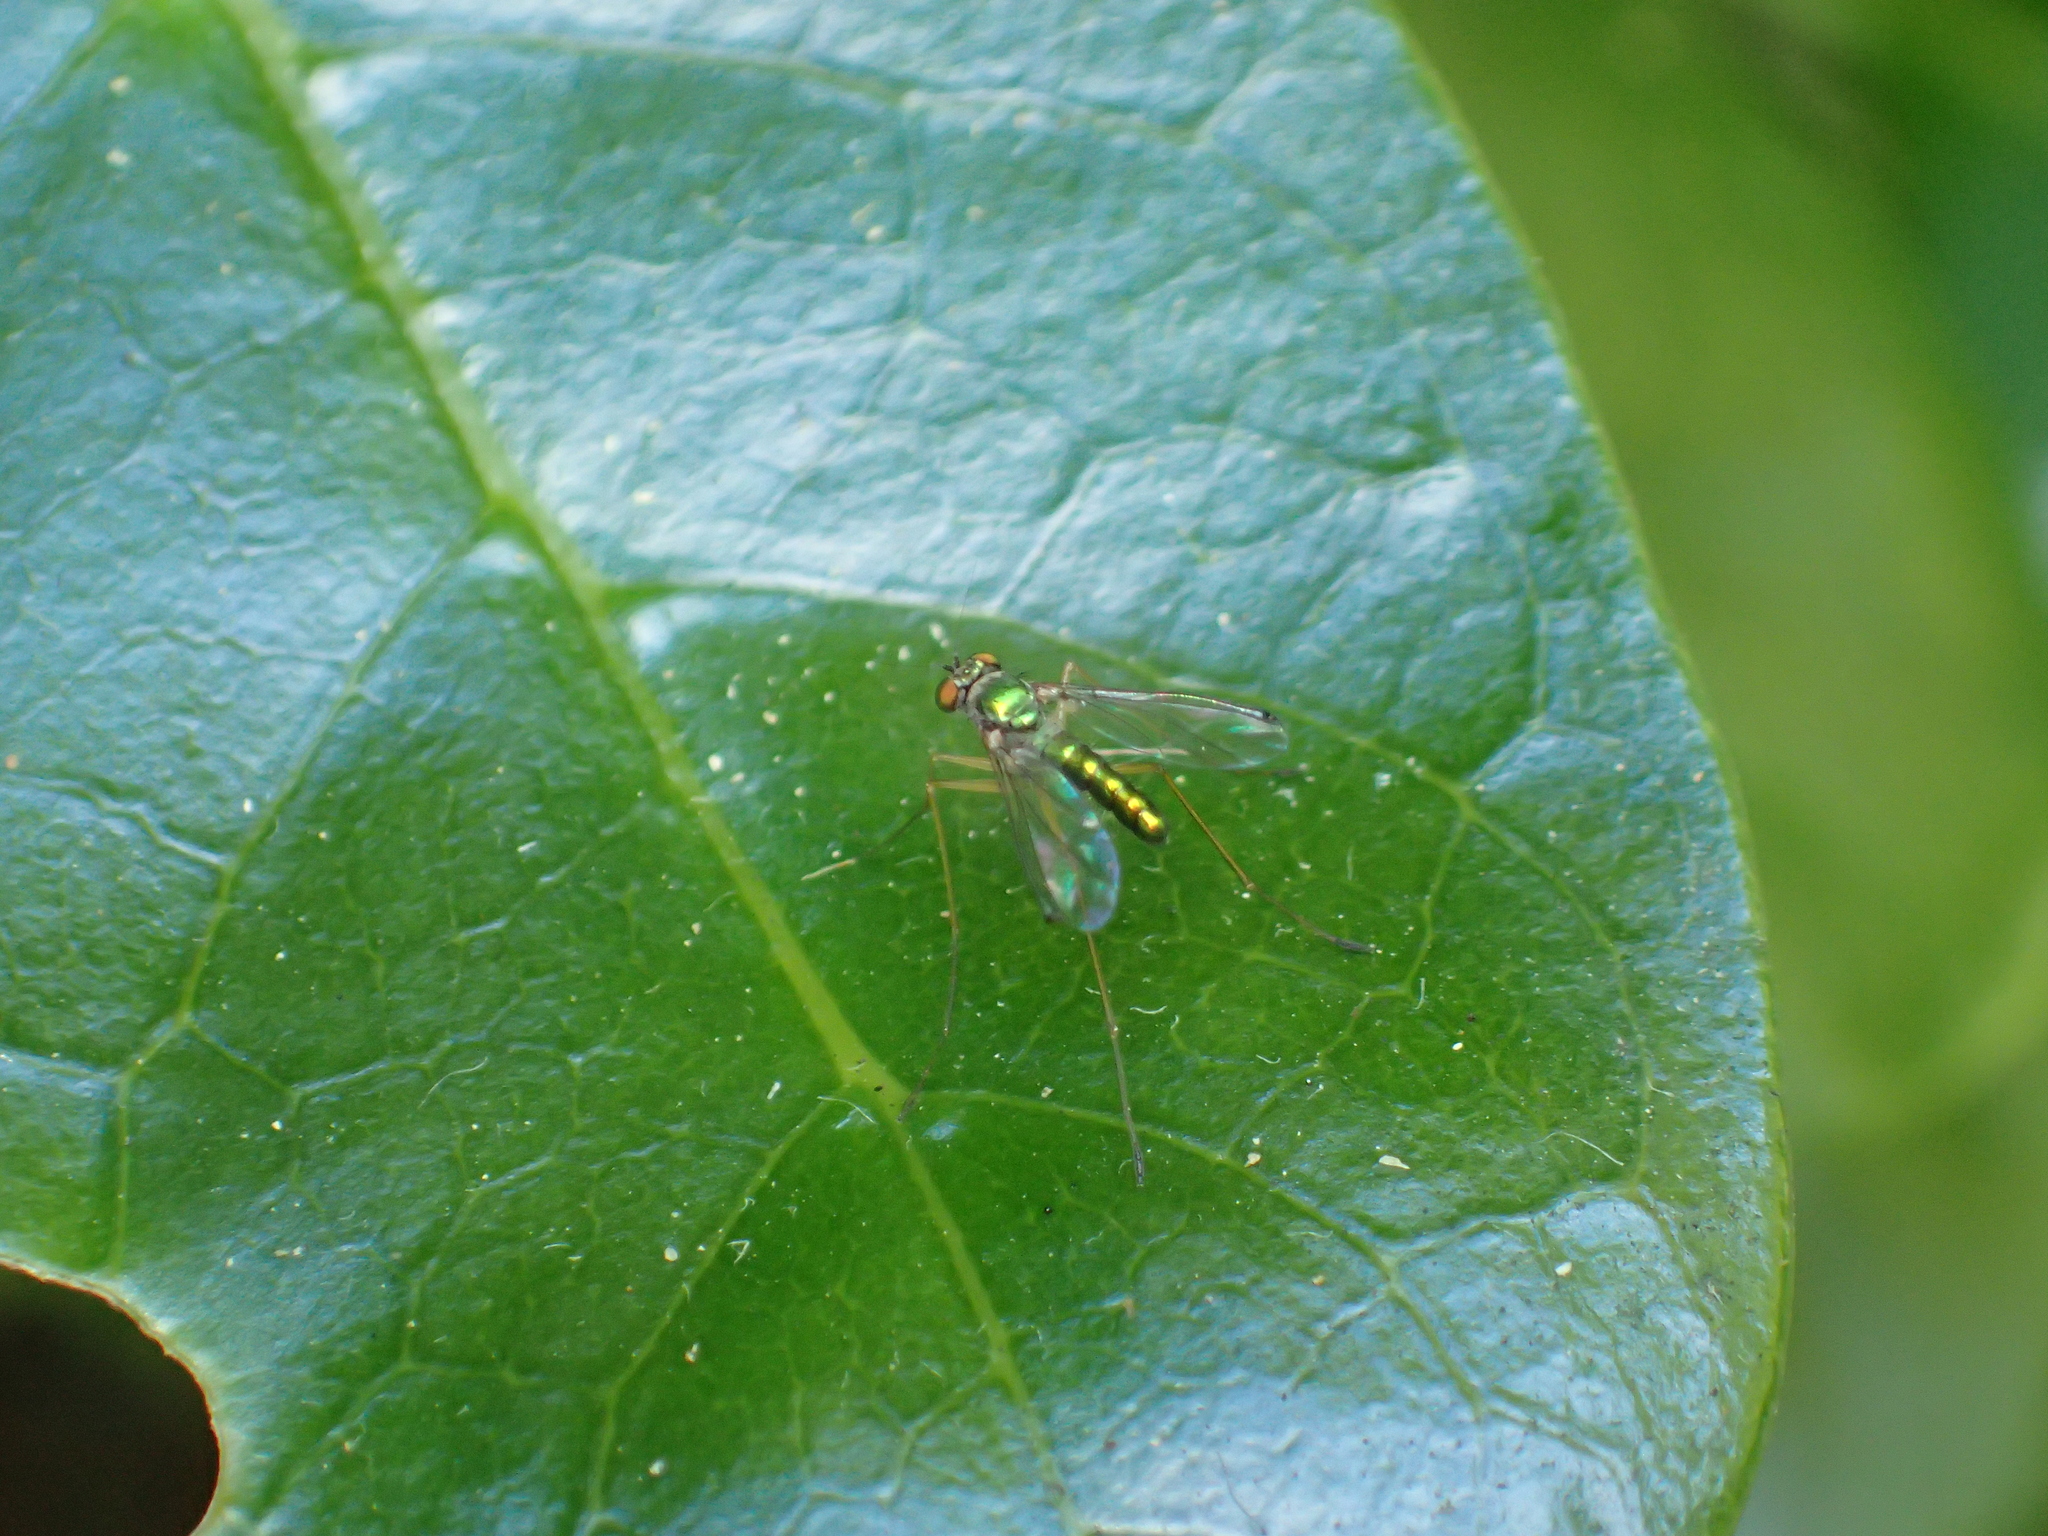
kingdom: Animalia
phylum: Arthropoda
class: Insecta
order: Diptera
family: Dolichopodidae
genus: Parentia
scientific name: Parentia anomalicosta
